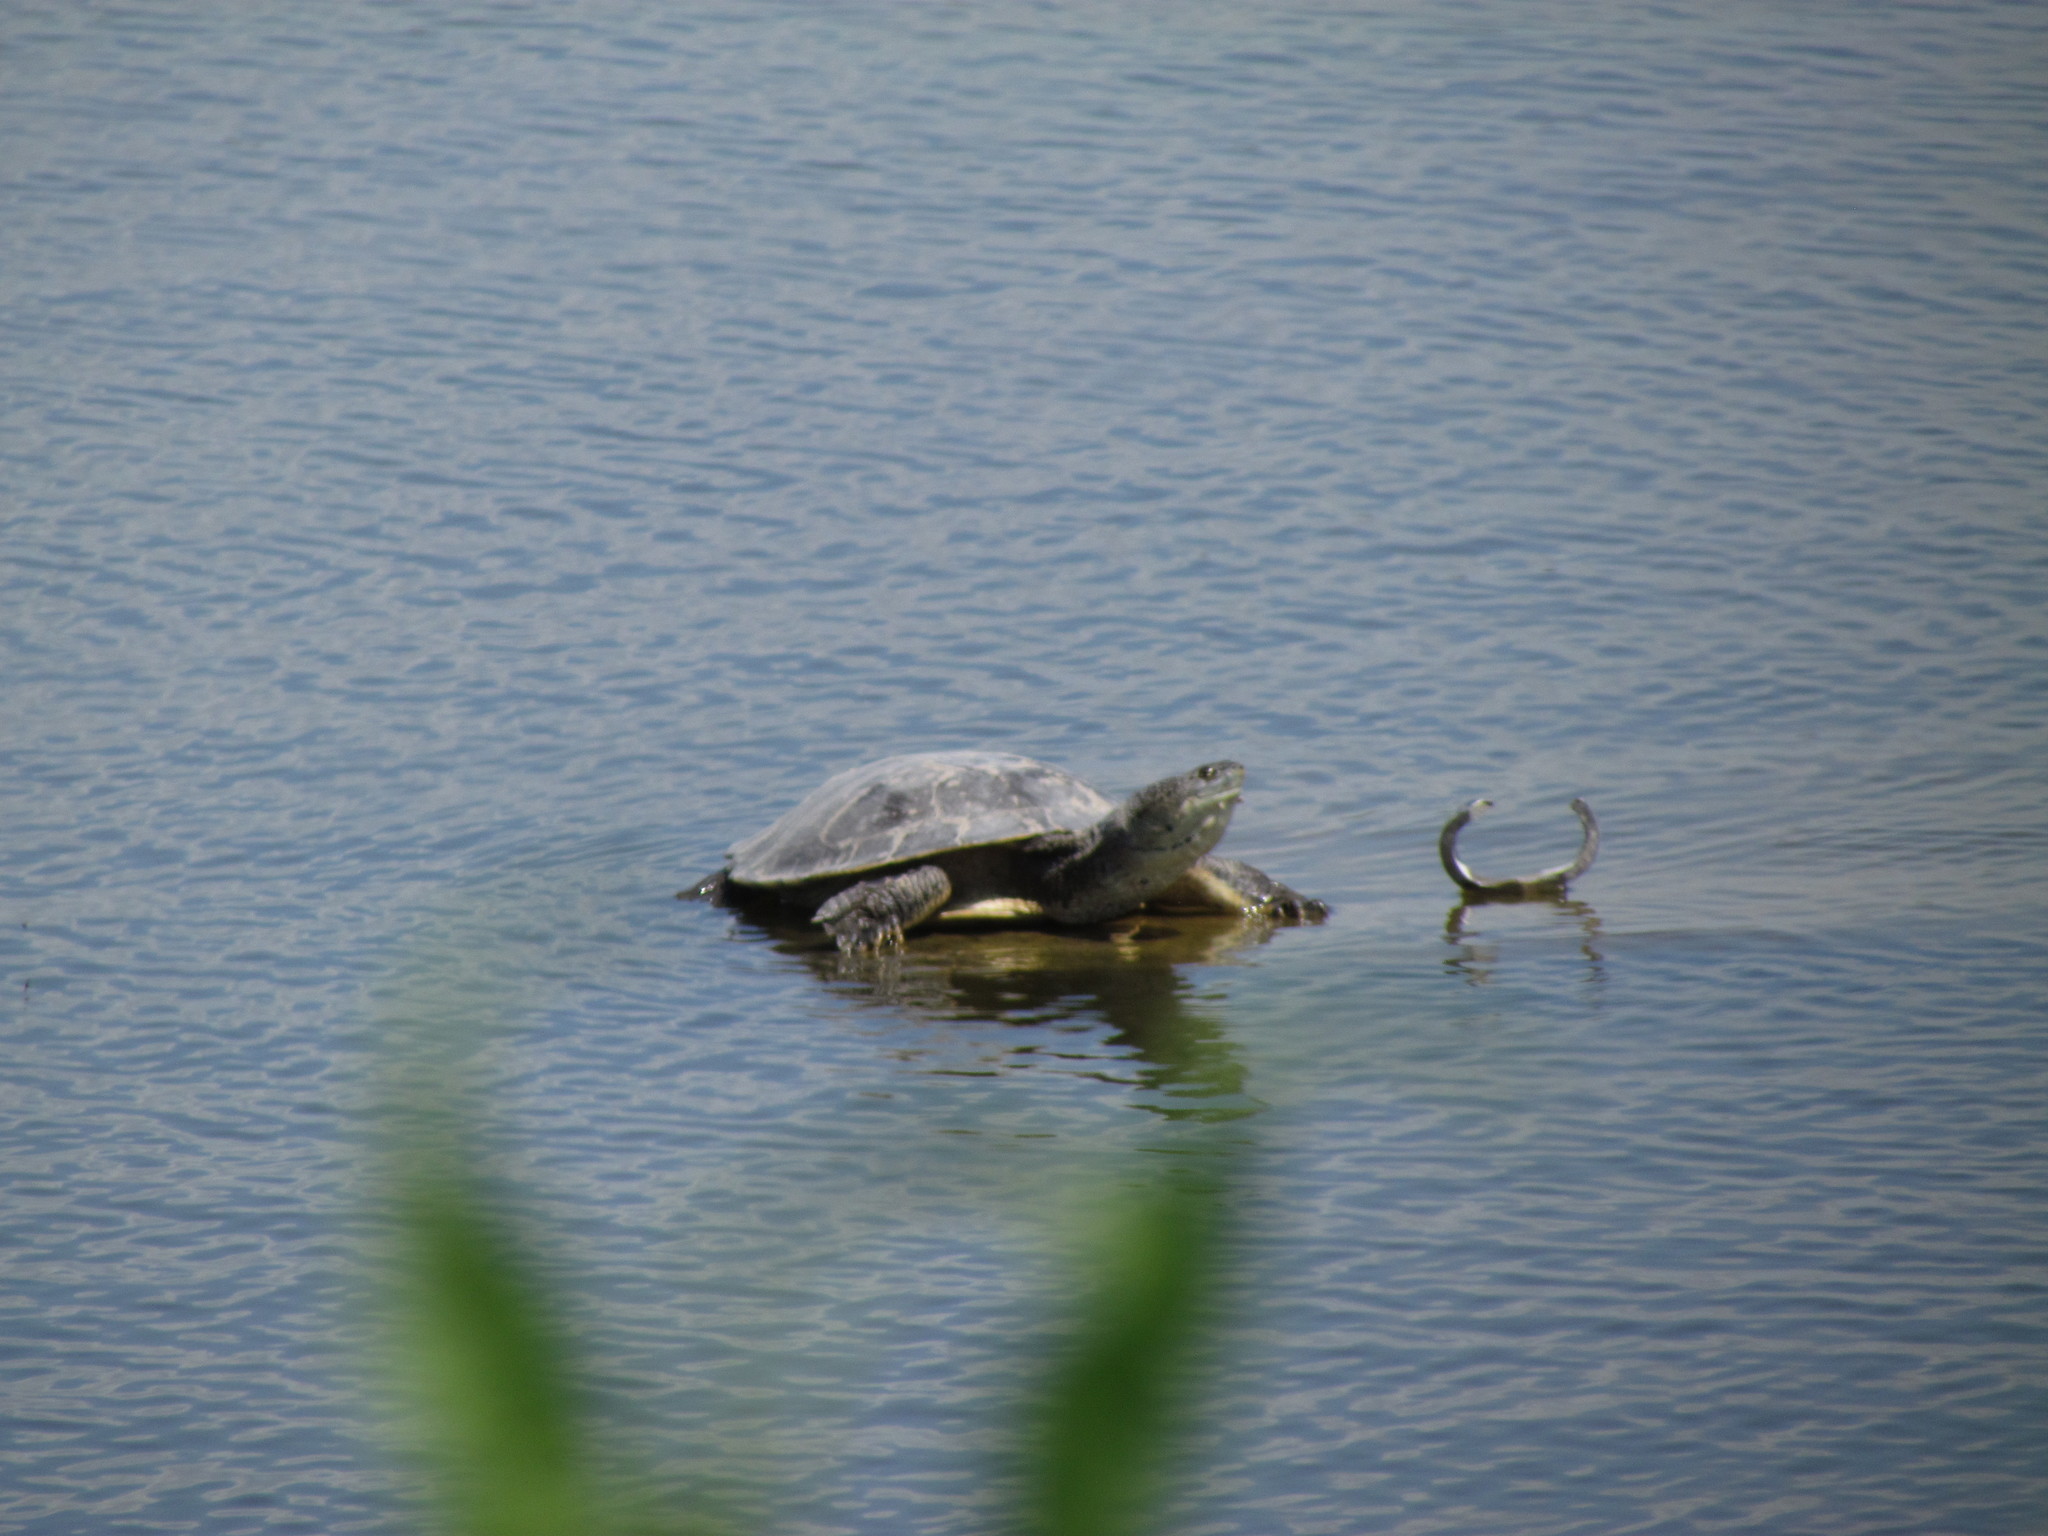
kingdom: Animalia
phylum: Chordata
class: Testudines
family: Chelidae
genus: Phrynops
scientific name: Phrynops hilarii
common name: Side-necked turtle of saint hillaire
